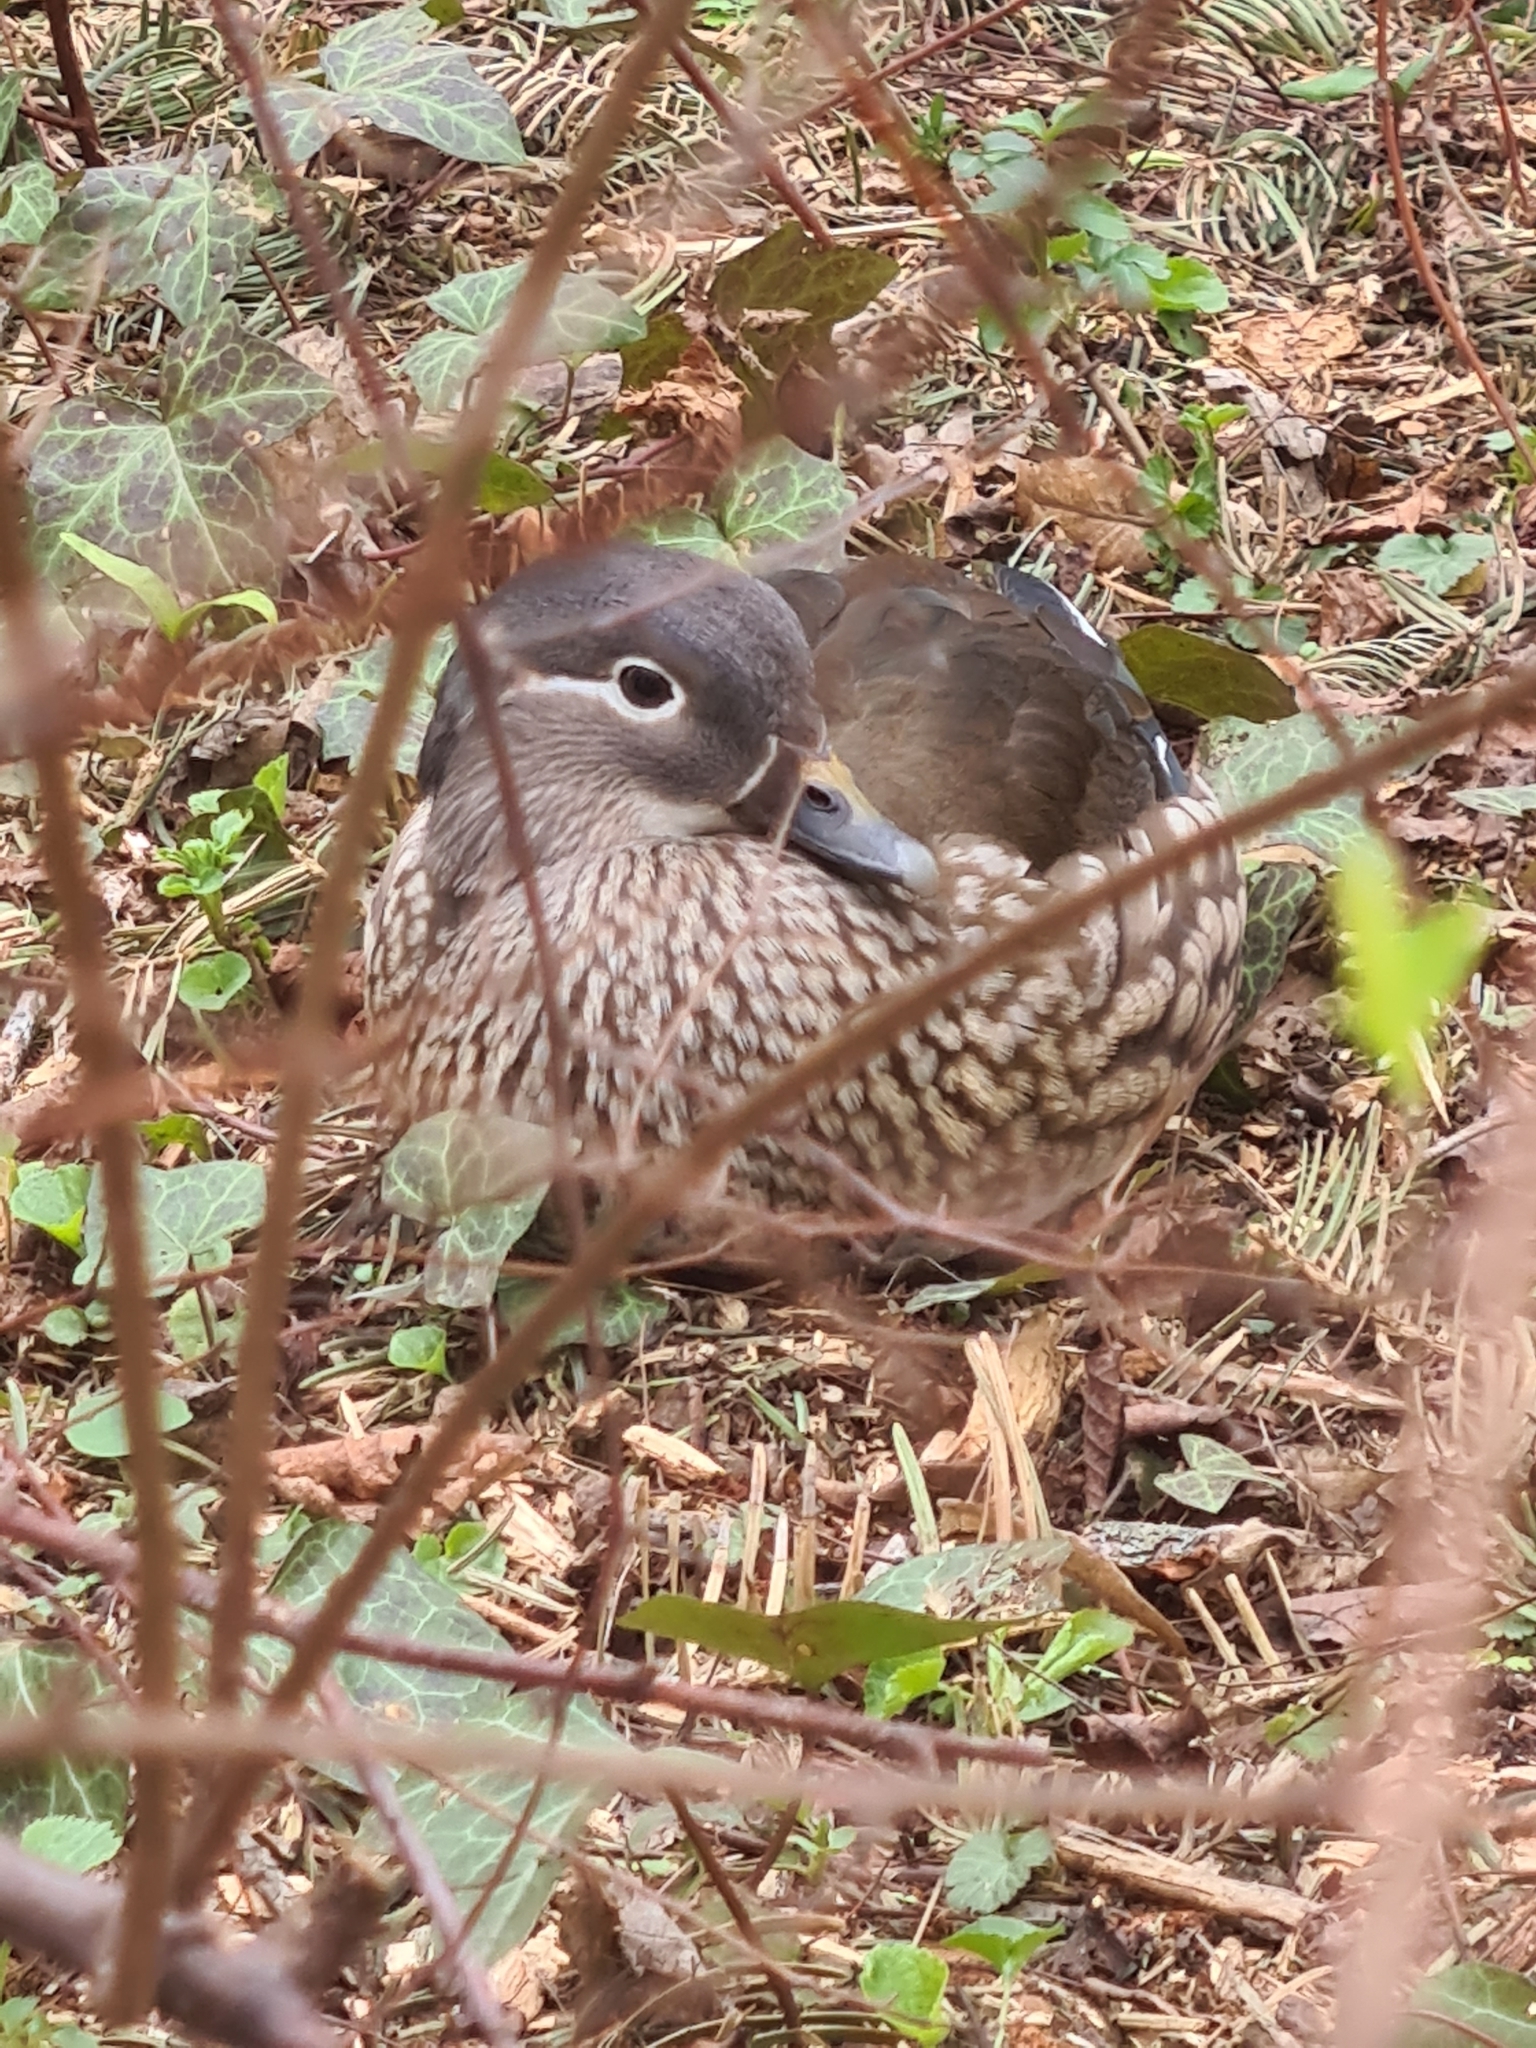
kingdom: Animalia
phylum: Chordata
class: Aves
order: Anseriformes
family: Anatidae
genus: Aix
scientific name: Aix galericulata
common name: Mandarin duck
